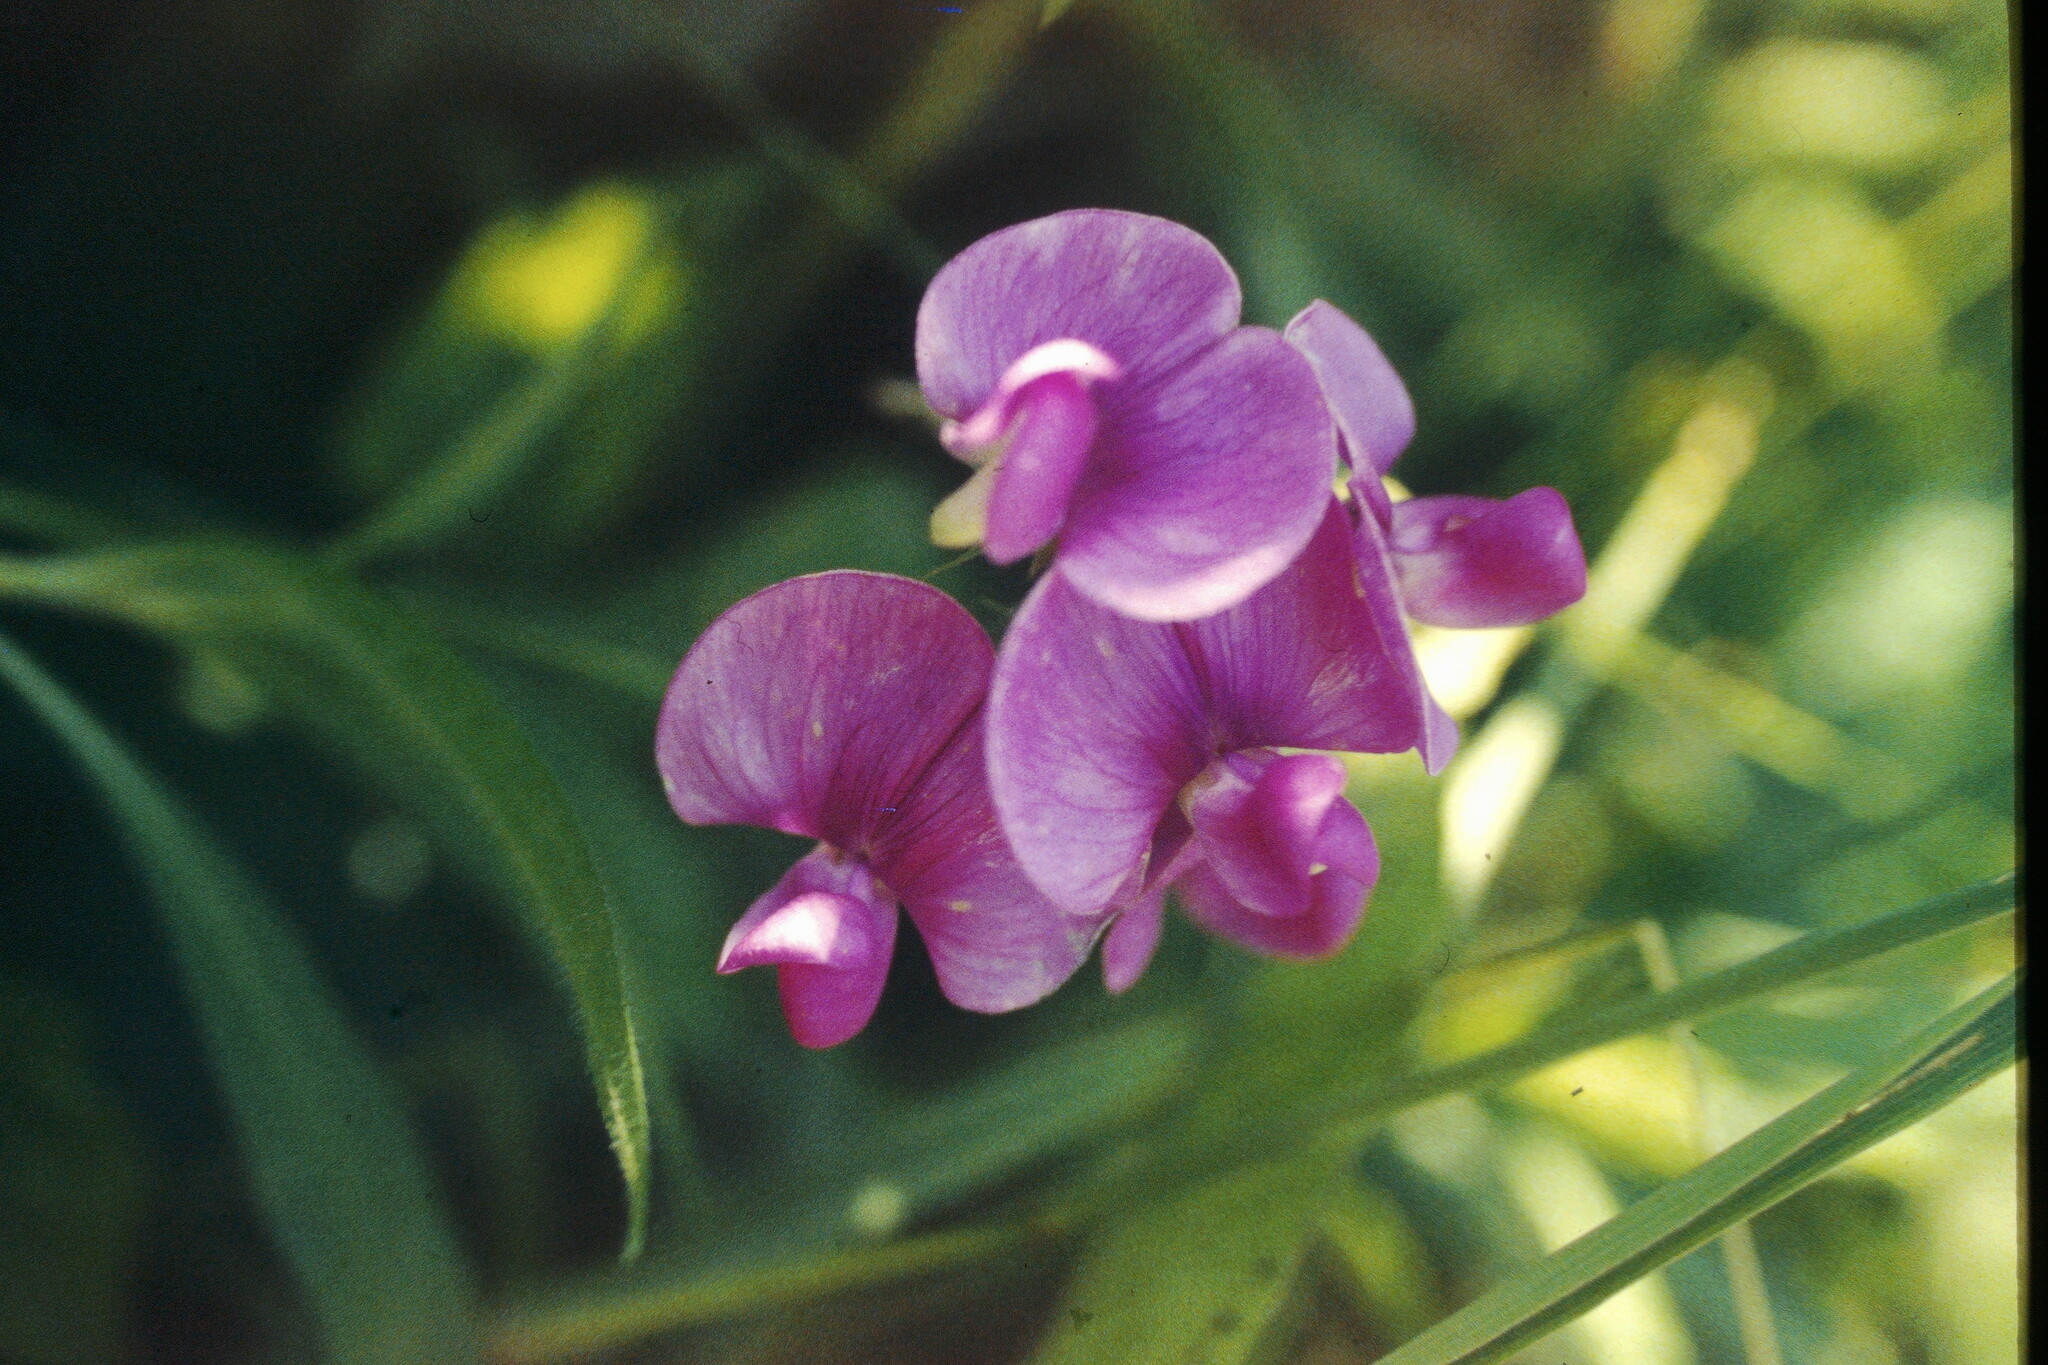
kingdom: Plantae
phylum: Tracheophyta
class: Magnoliopsida
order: Fabales
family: Fabaceae
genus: Lathyrus
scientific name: Lathyrus latifolius
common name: Perennial pea
